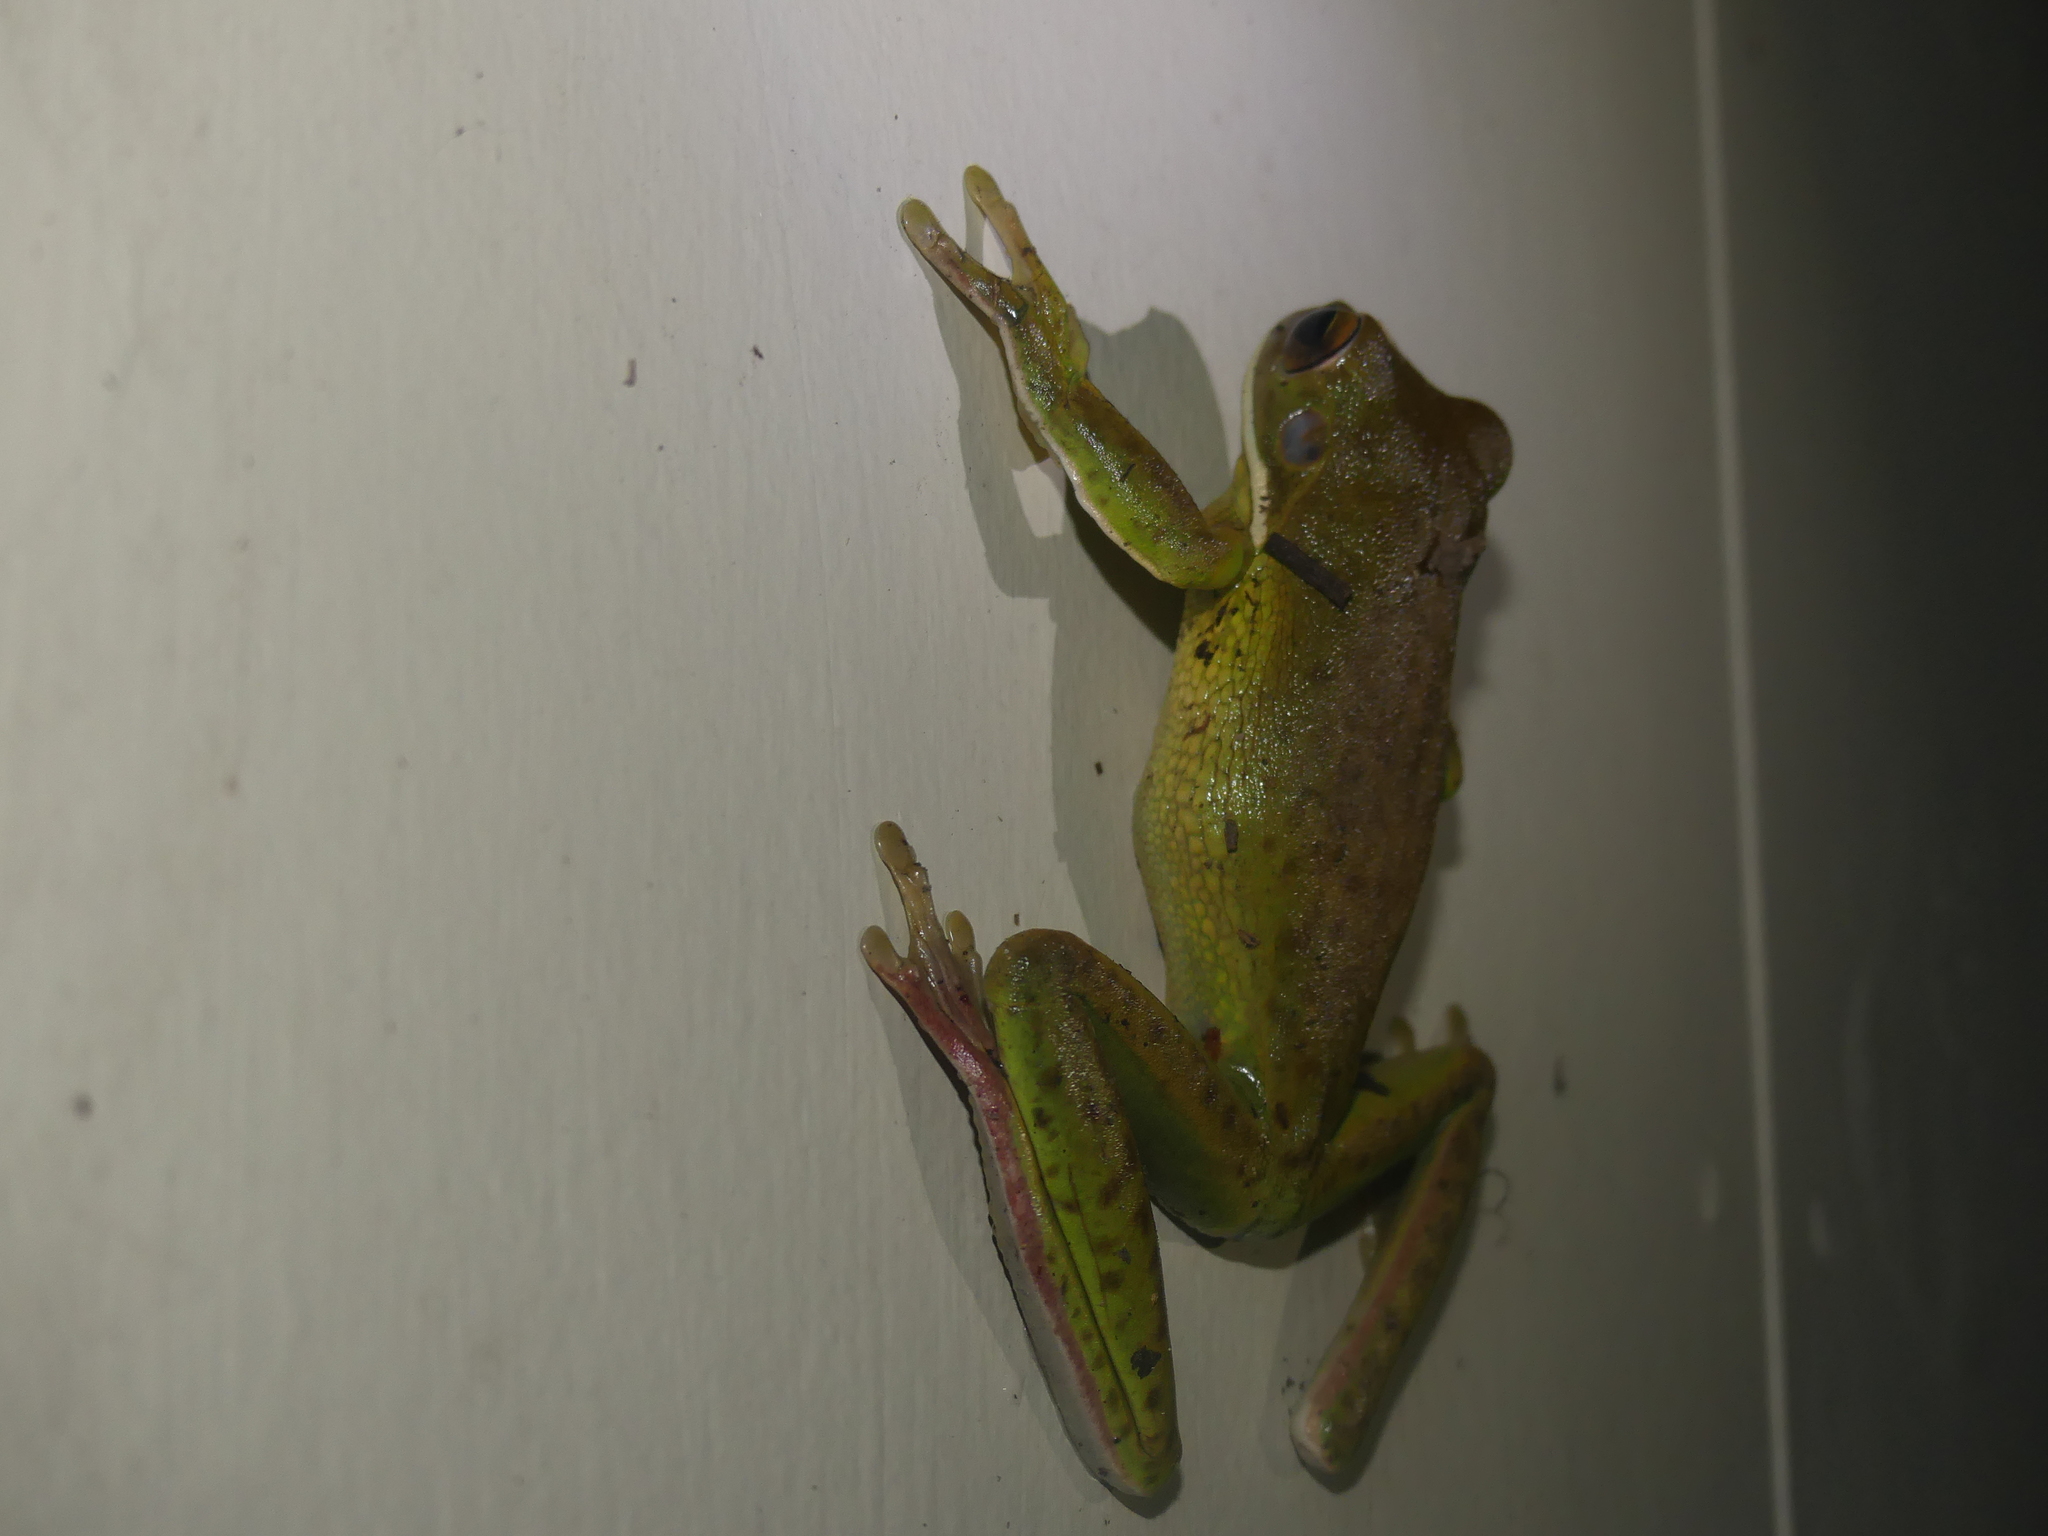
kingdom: Animalia
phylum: Chordata
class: Amphibia
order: Anura
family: Pelodryadidae
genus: Nyctimystes
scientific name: Nyctimystes infrafrenatus
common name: Australian giant treefrog
